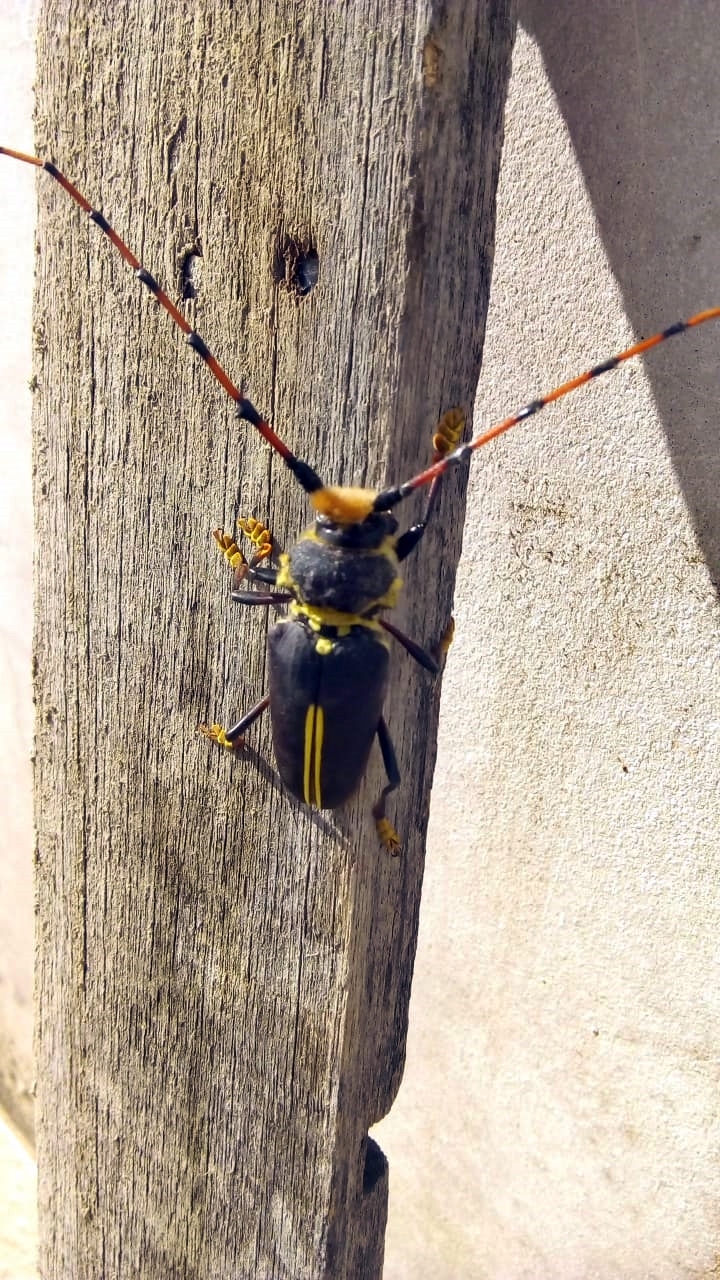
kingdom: Animalia
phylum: Arthropoda
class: Insecta
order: Coleoptera
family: Cerambycidae
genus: Dorcacerus
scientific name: Dorcacerus barbatus
